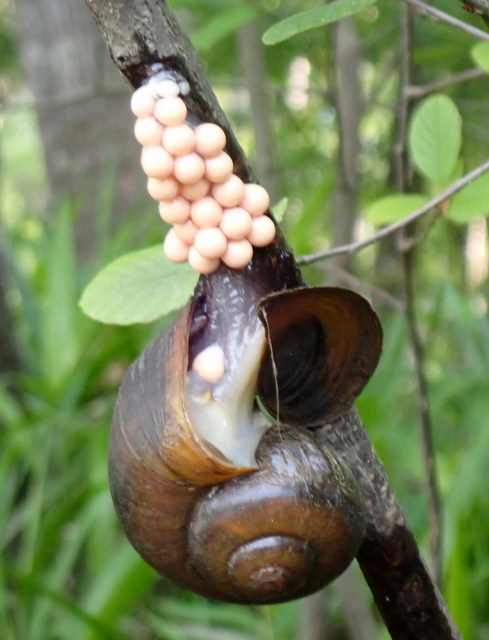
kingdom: Animalia
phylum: Mollusca
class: Gastropoda
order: Architaenioglossa
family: Ampullariidae
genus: Pomacea
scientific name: Pomacea paludosa
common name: Florida applesnail
